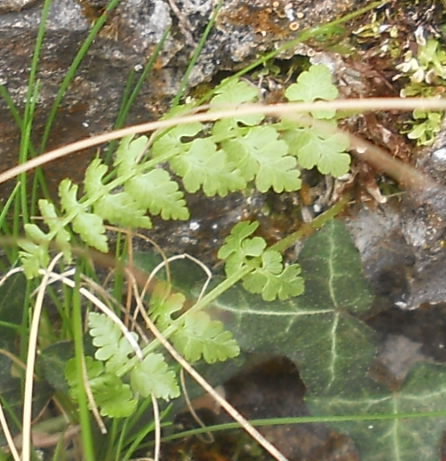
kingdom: Plantae
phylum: Tracheophyta
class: Polypodiopsida
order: Polypodiales
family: Cystopteridaceae
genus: Cystopteris
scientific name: Cystopteris fragilis
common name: Brittle bladder fern
